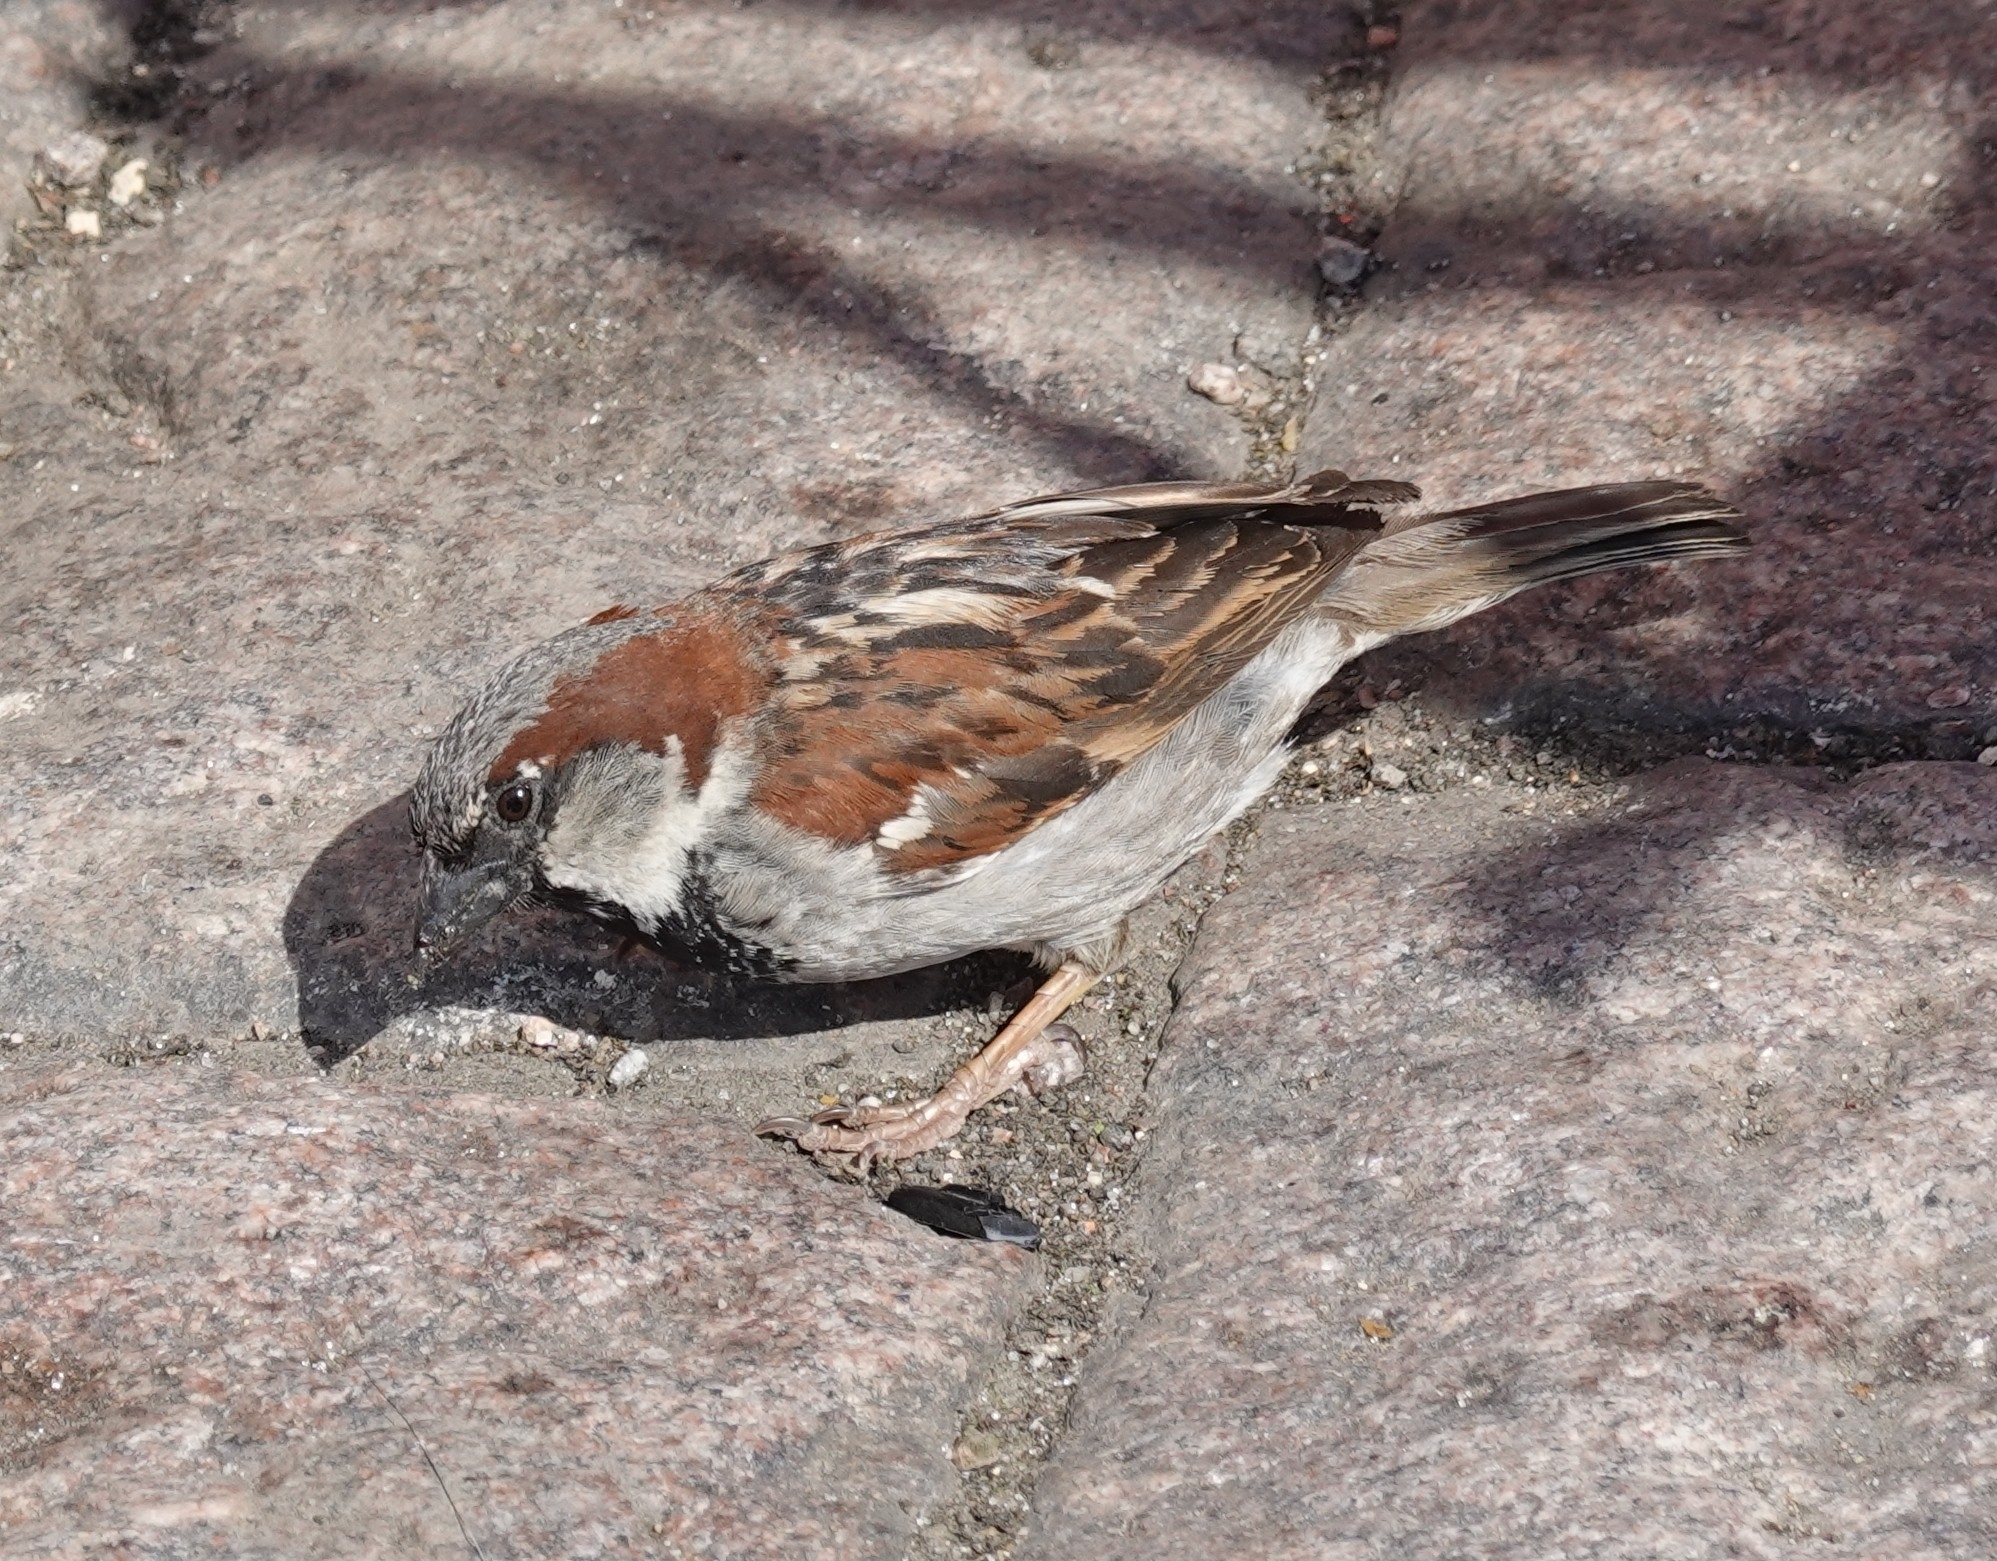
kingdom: Animalia
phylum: Chordata
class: Aves
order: Passeriformes
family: Passeridae
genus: Passer
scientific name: Passer domesticus
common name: House sparrow
